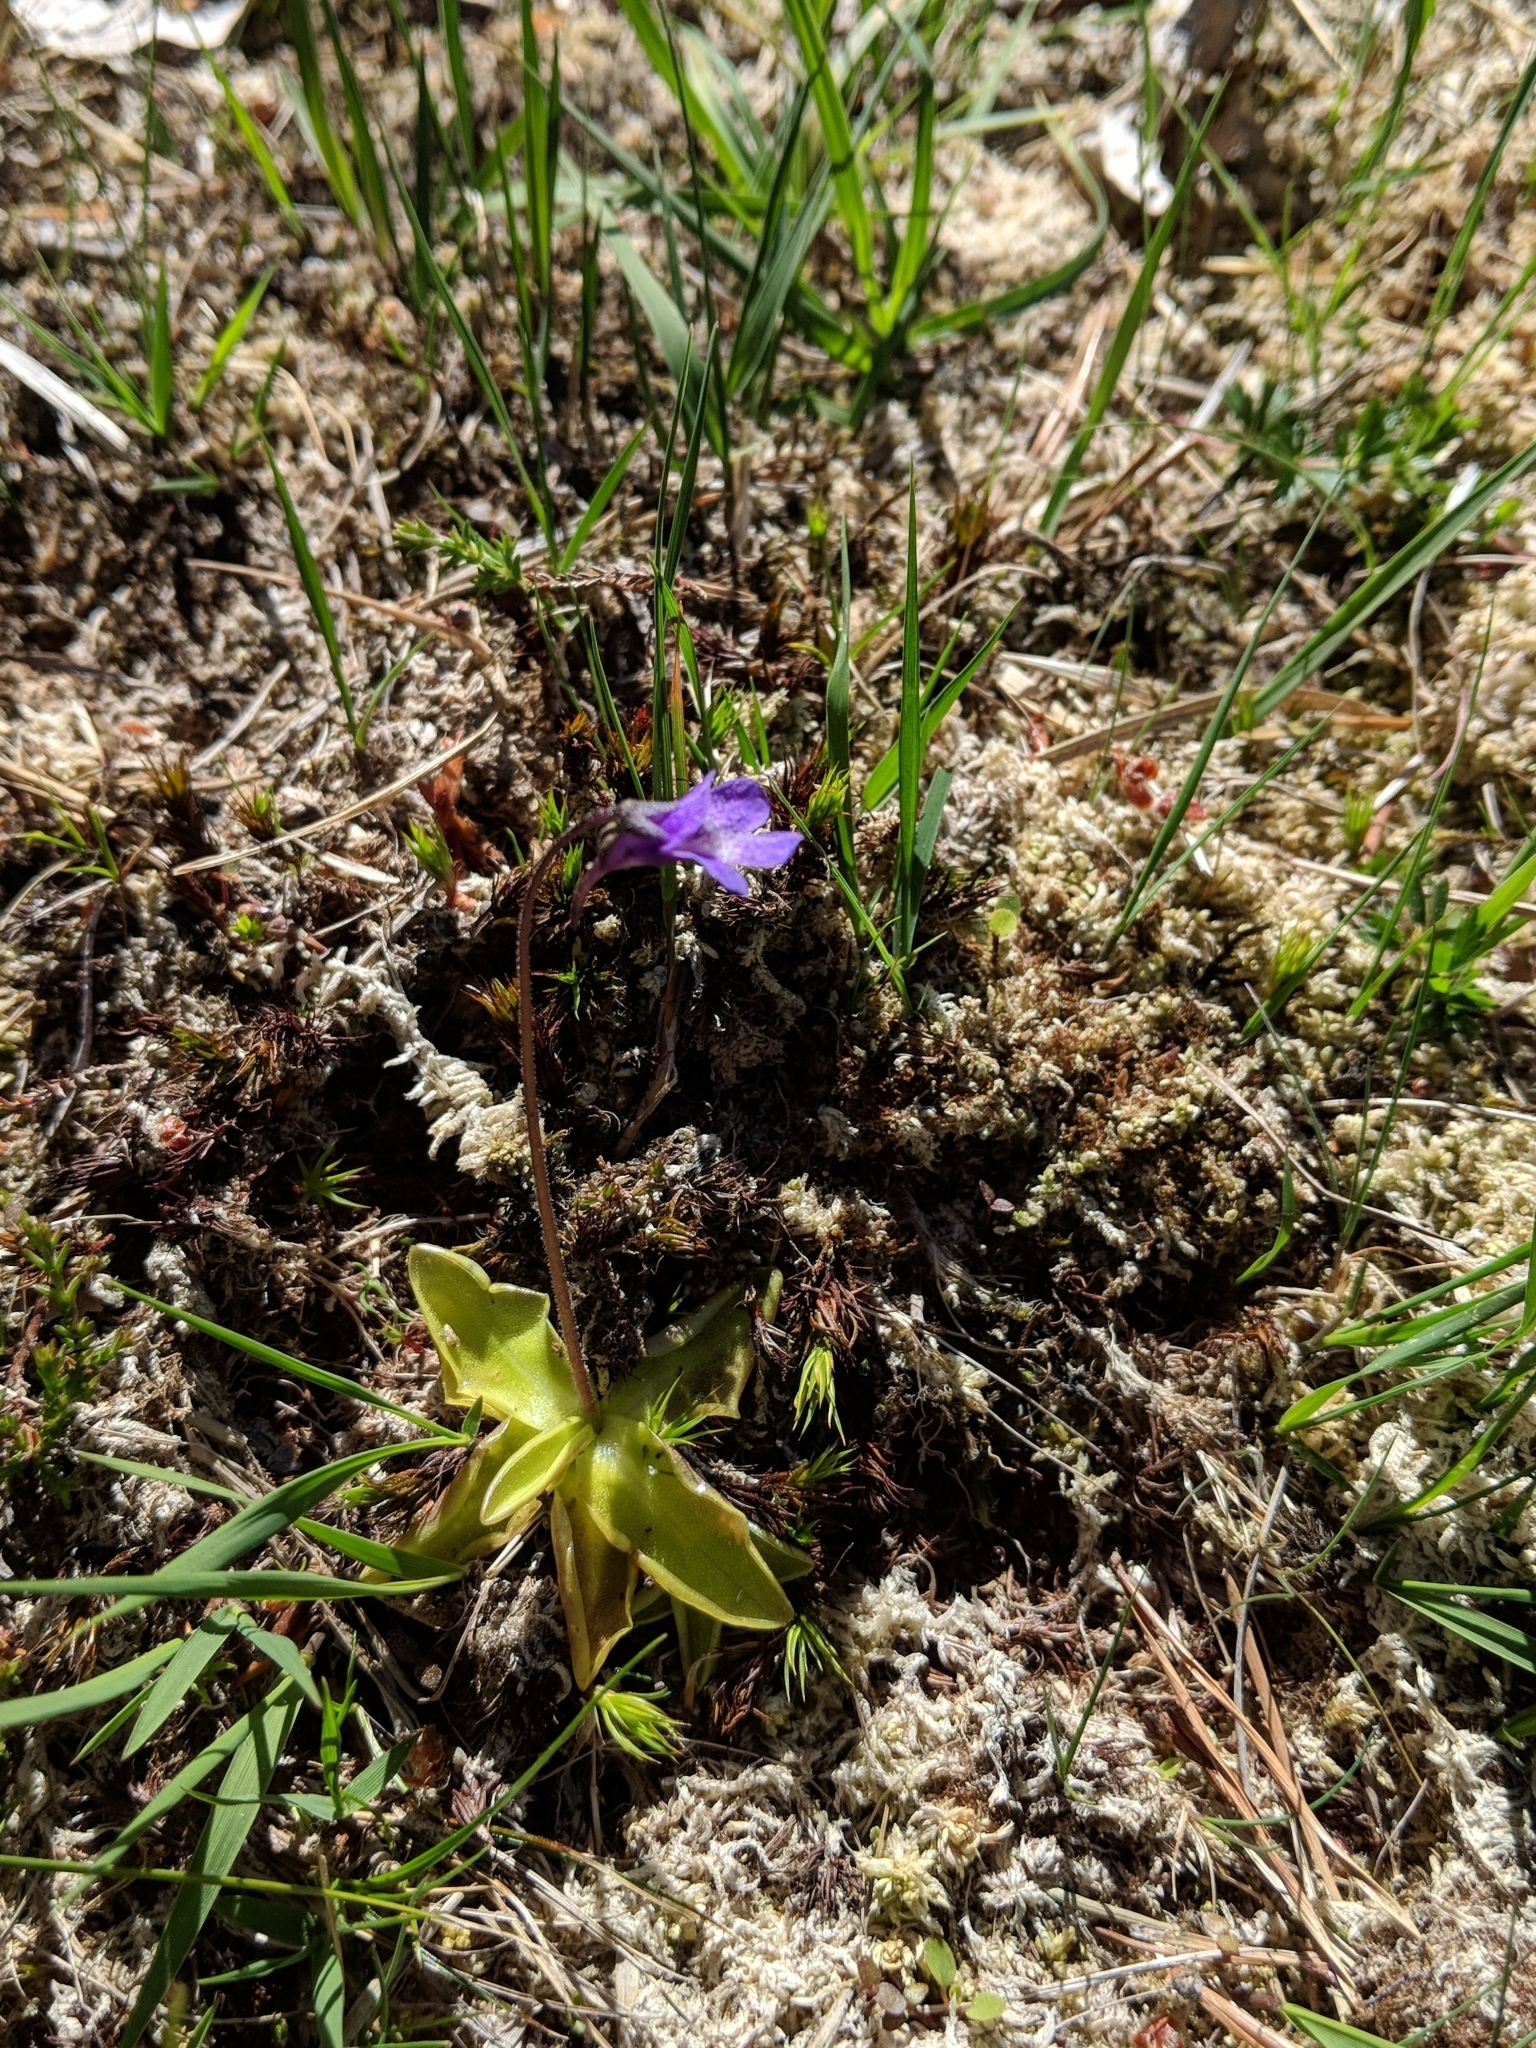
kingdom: Plantae
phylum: Tracheophyta
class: Magnoliopsida
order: Lamiales
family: Lentibulariaceae
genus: Pinguicula
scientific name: Pinguicula vulgaris
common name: Common butterwort
